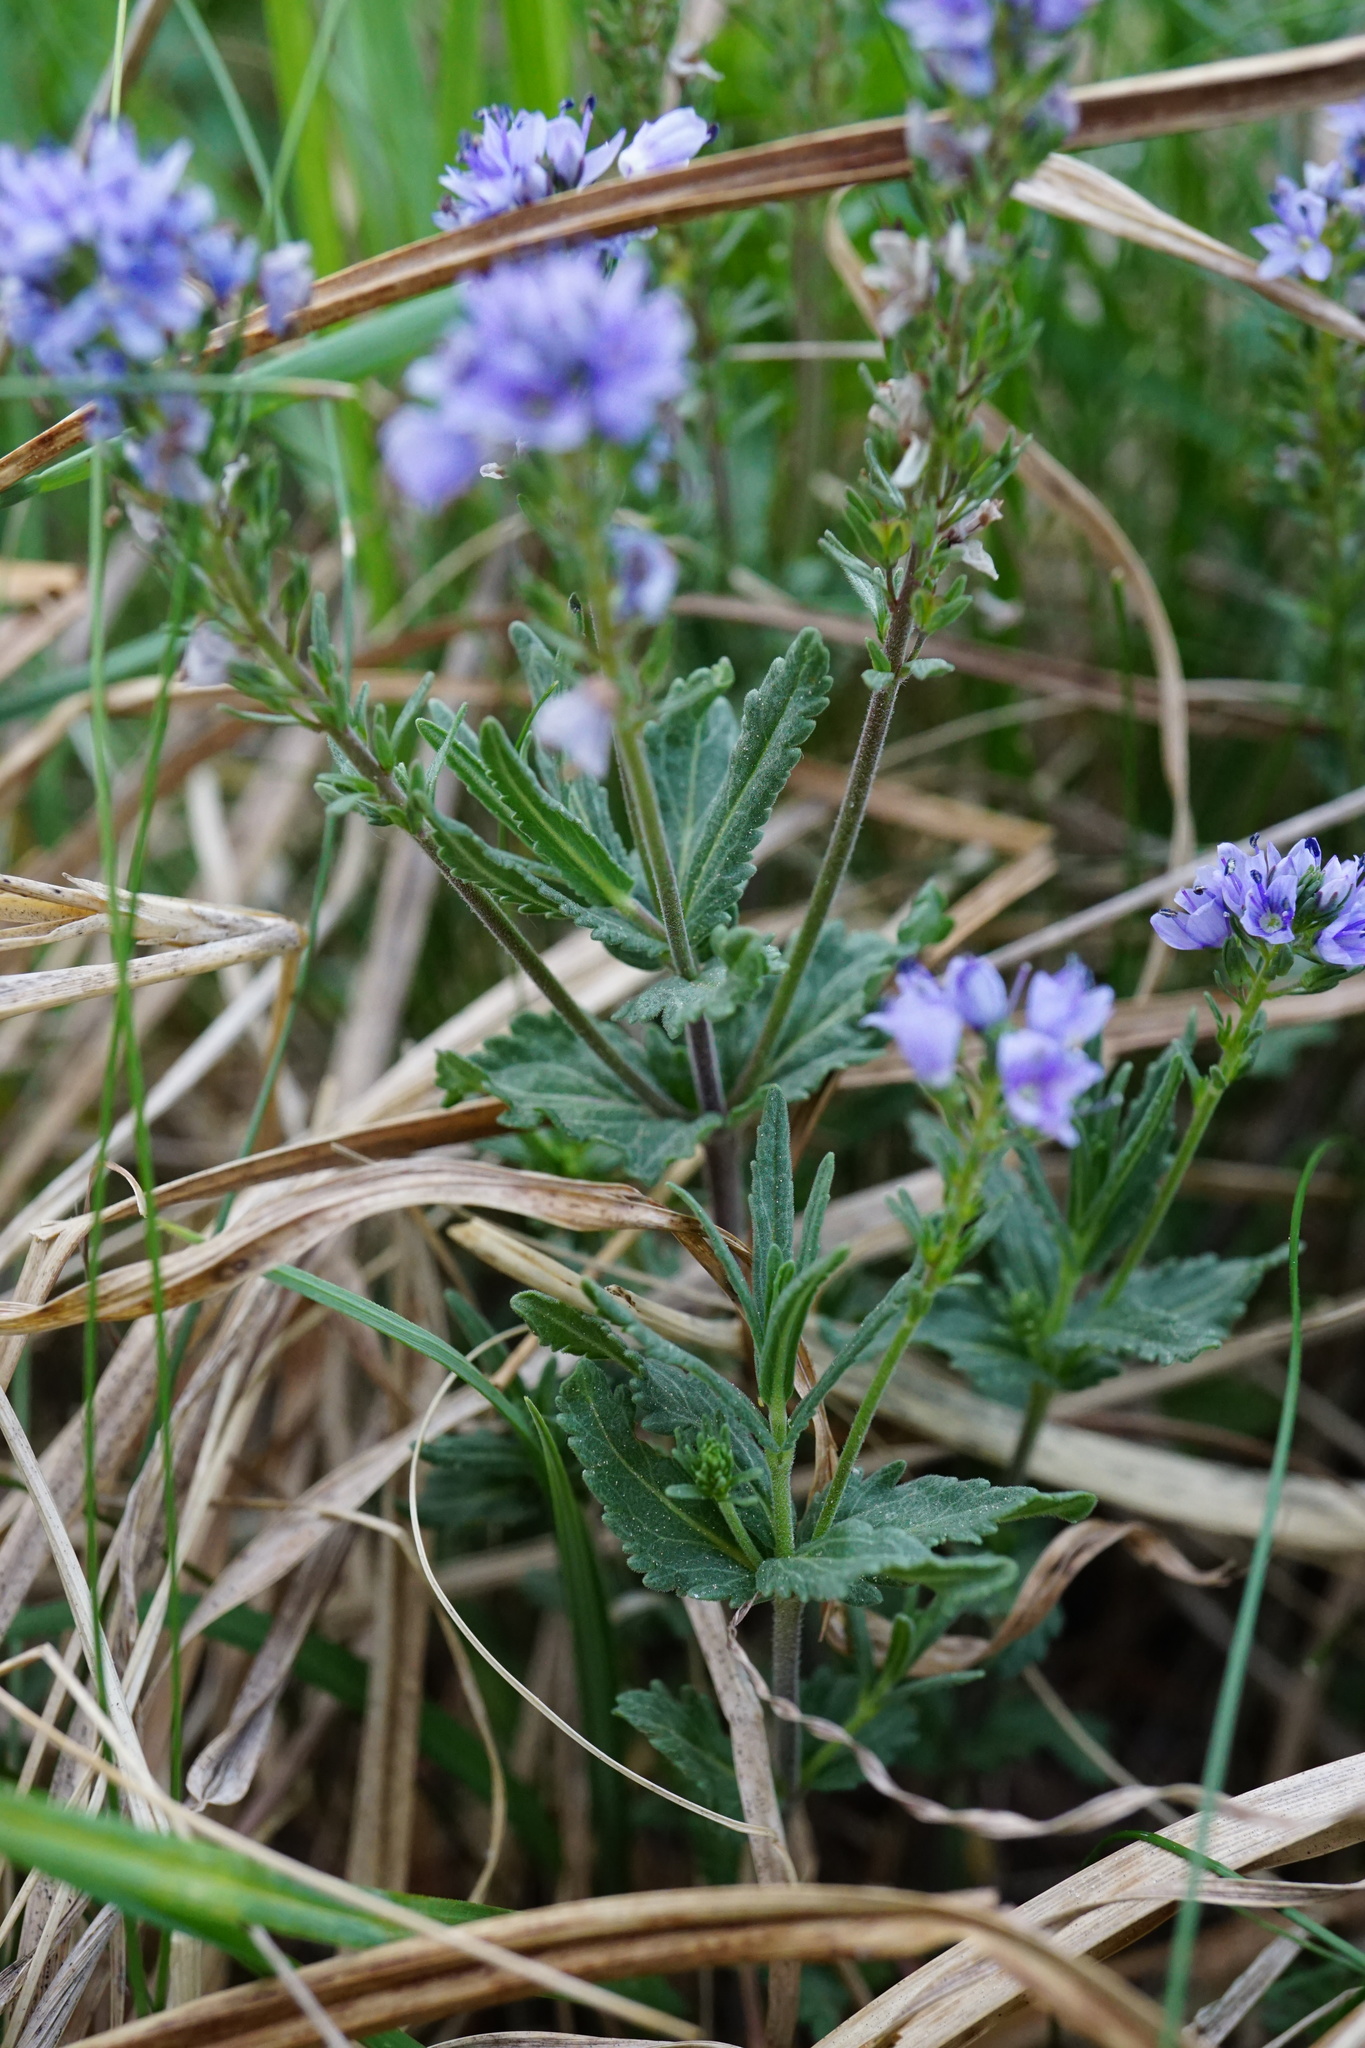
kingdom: Plantae
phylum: Tracheophyta
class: Magnoliopsida
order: Lamiales
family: Plantaginaceae
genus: Veronica
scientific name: Veronica austriaca
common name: Large speedwell
